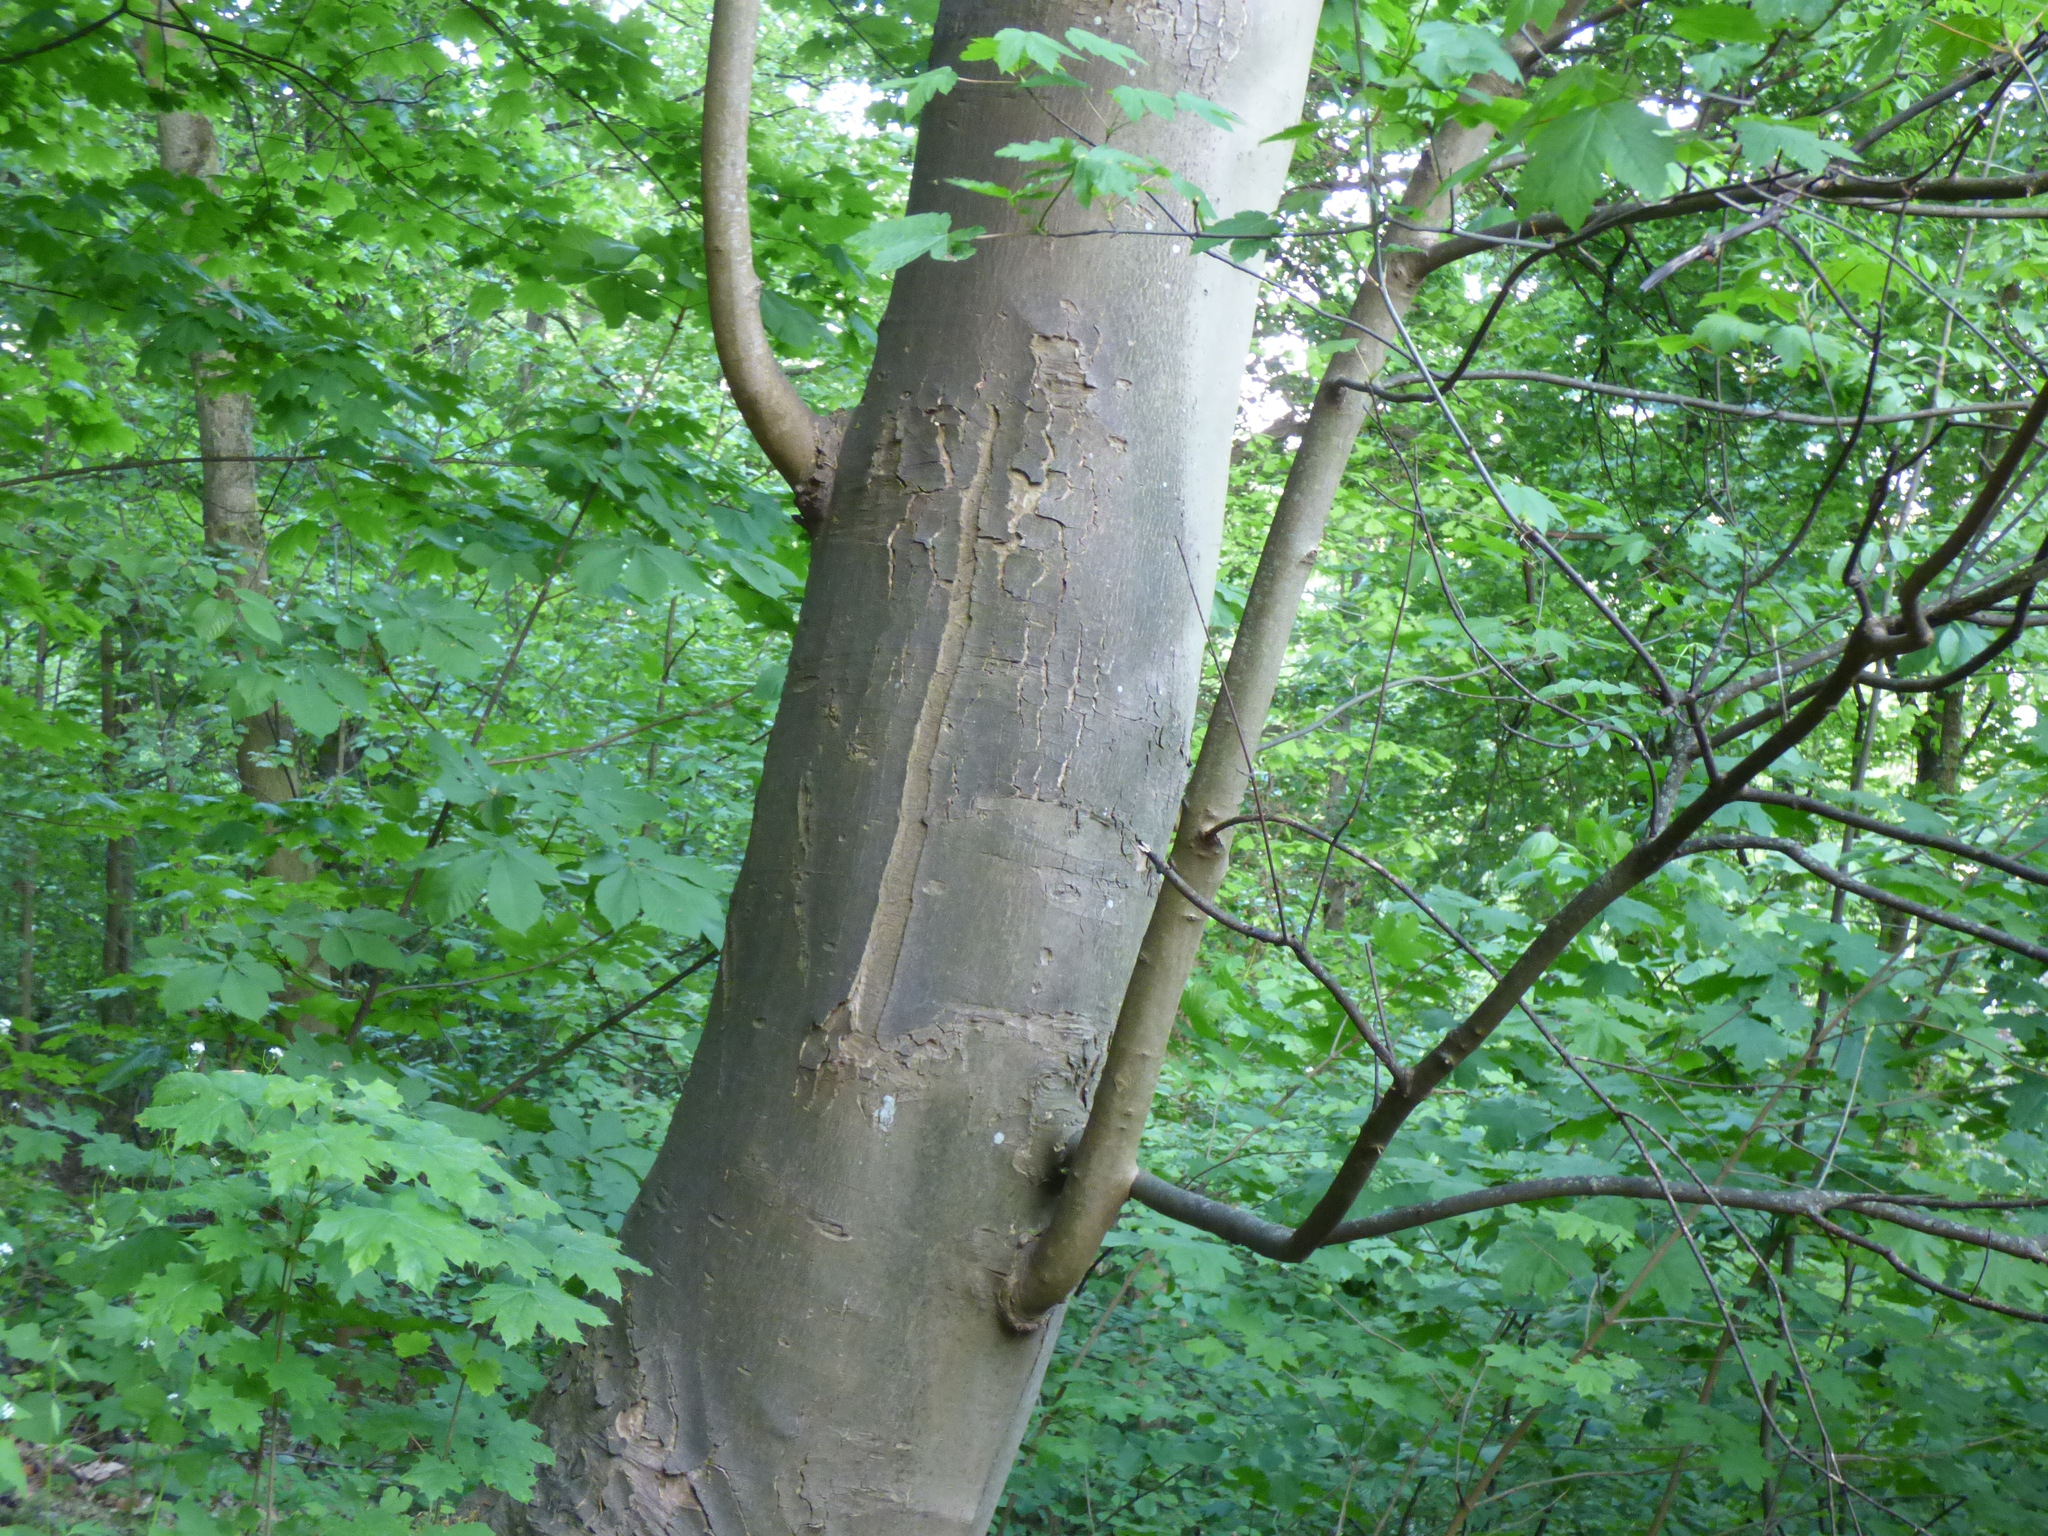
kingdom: Plantae
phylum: Tracheophyta
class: Magnoliopsida
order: Sapindales
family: Sapindaceae
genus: Acer
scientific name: Acer pseudoplatanus
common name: Sycamore
